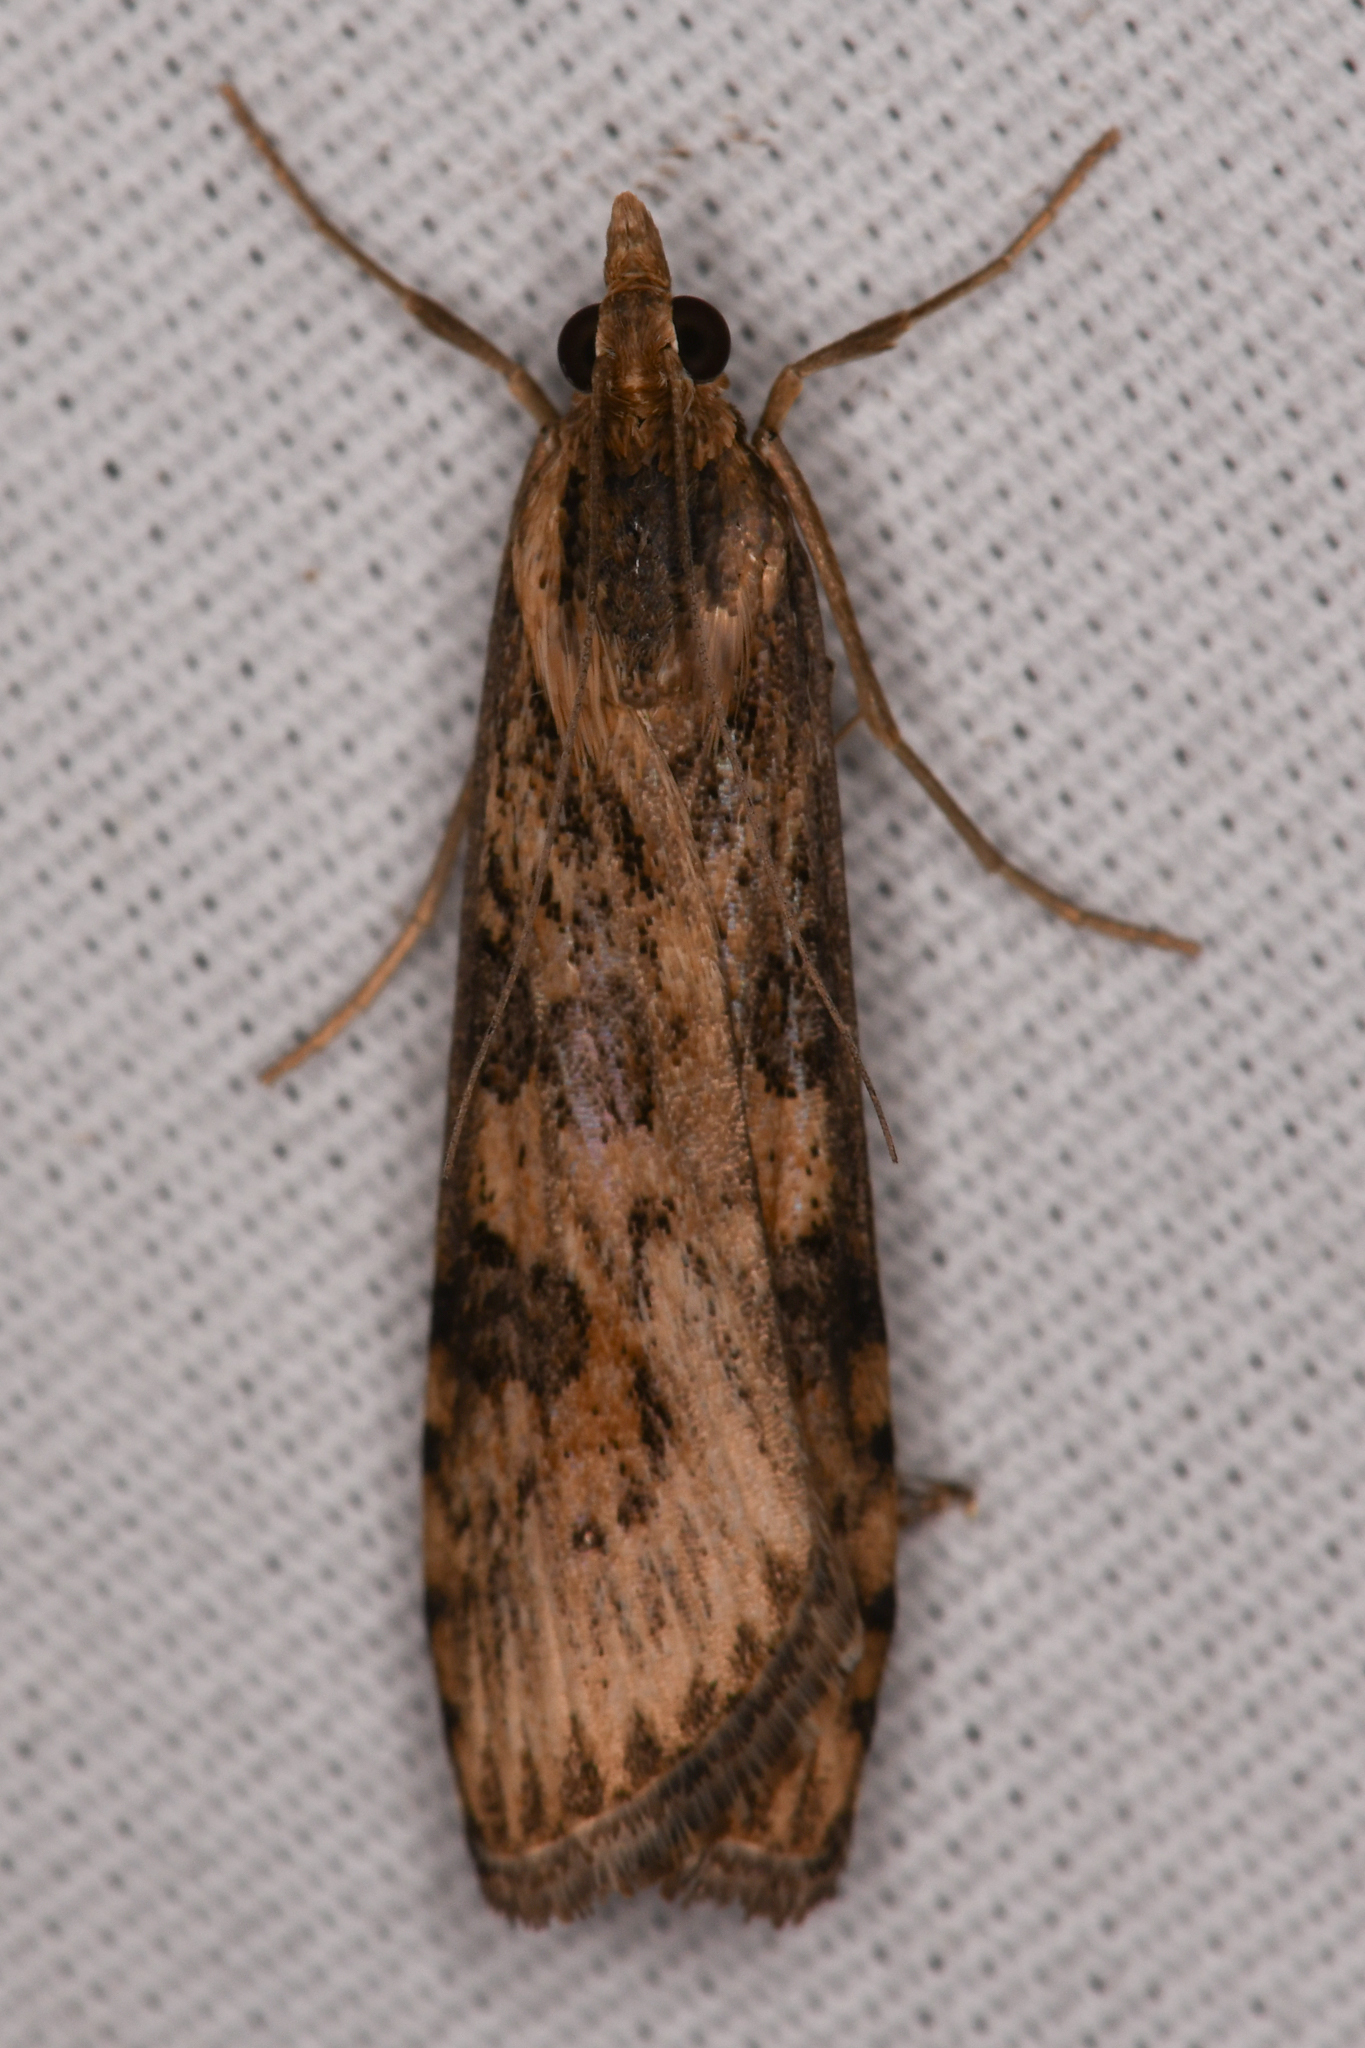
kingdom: Animalia
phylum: Arthropoda
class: Insecta
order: Lepidoptera
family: Crambidae
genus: Nomophila
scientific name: Nomophila nearctica
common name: American rush veneer
